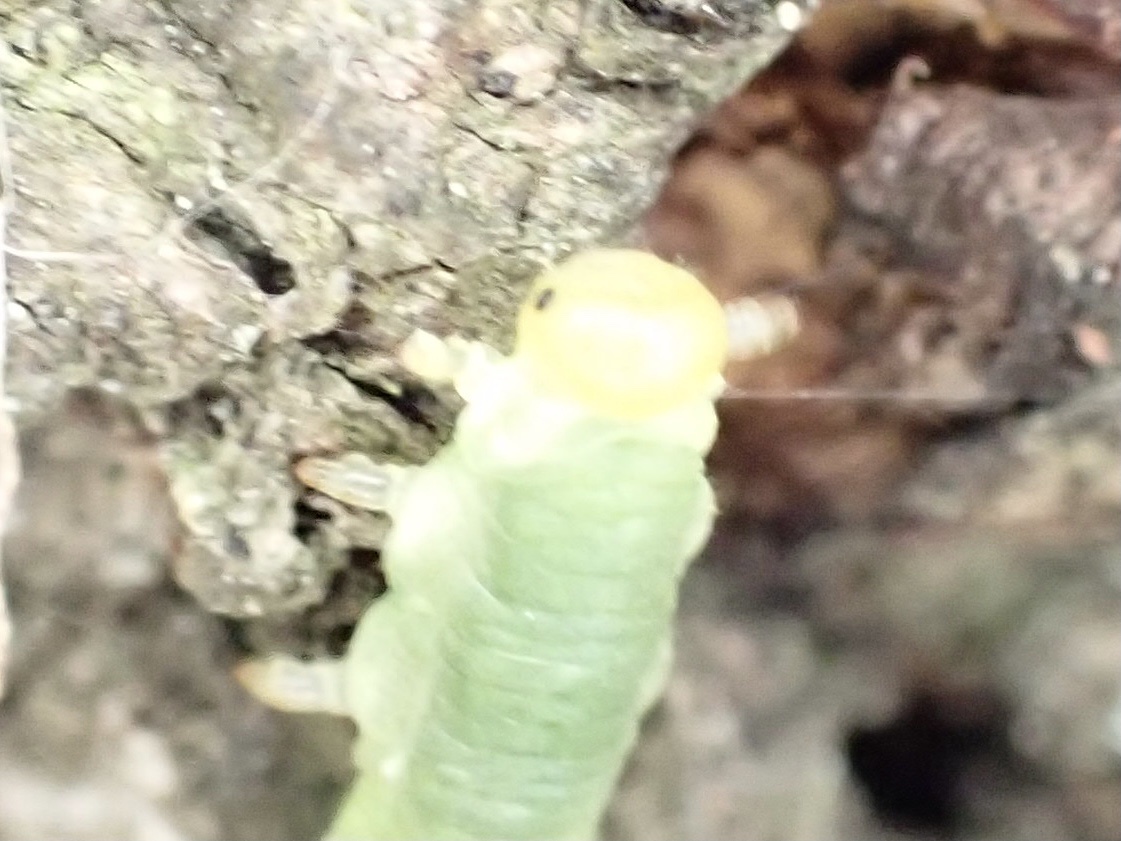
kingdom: Animalia
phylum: Arthropoda
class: Insecta
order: Hymenoptera
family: Tenthredinidae
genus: Dineura
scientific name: Dineura virididorsata
